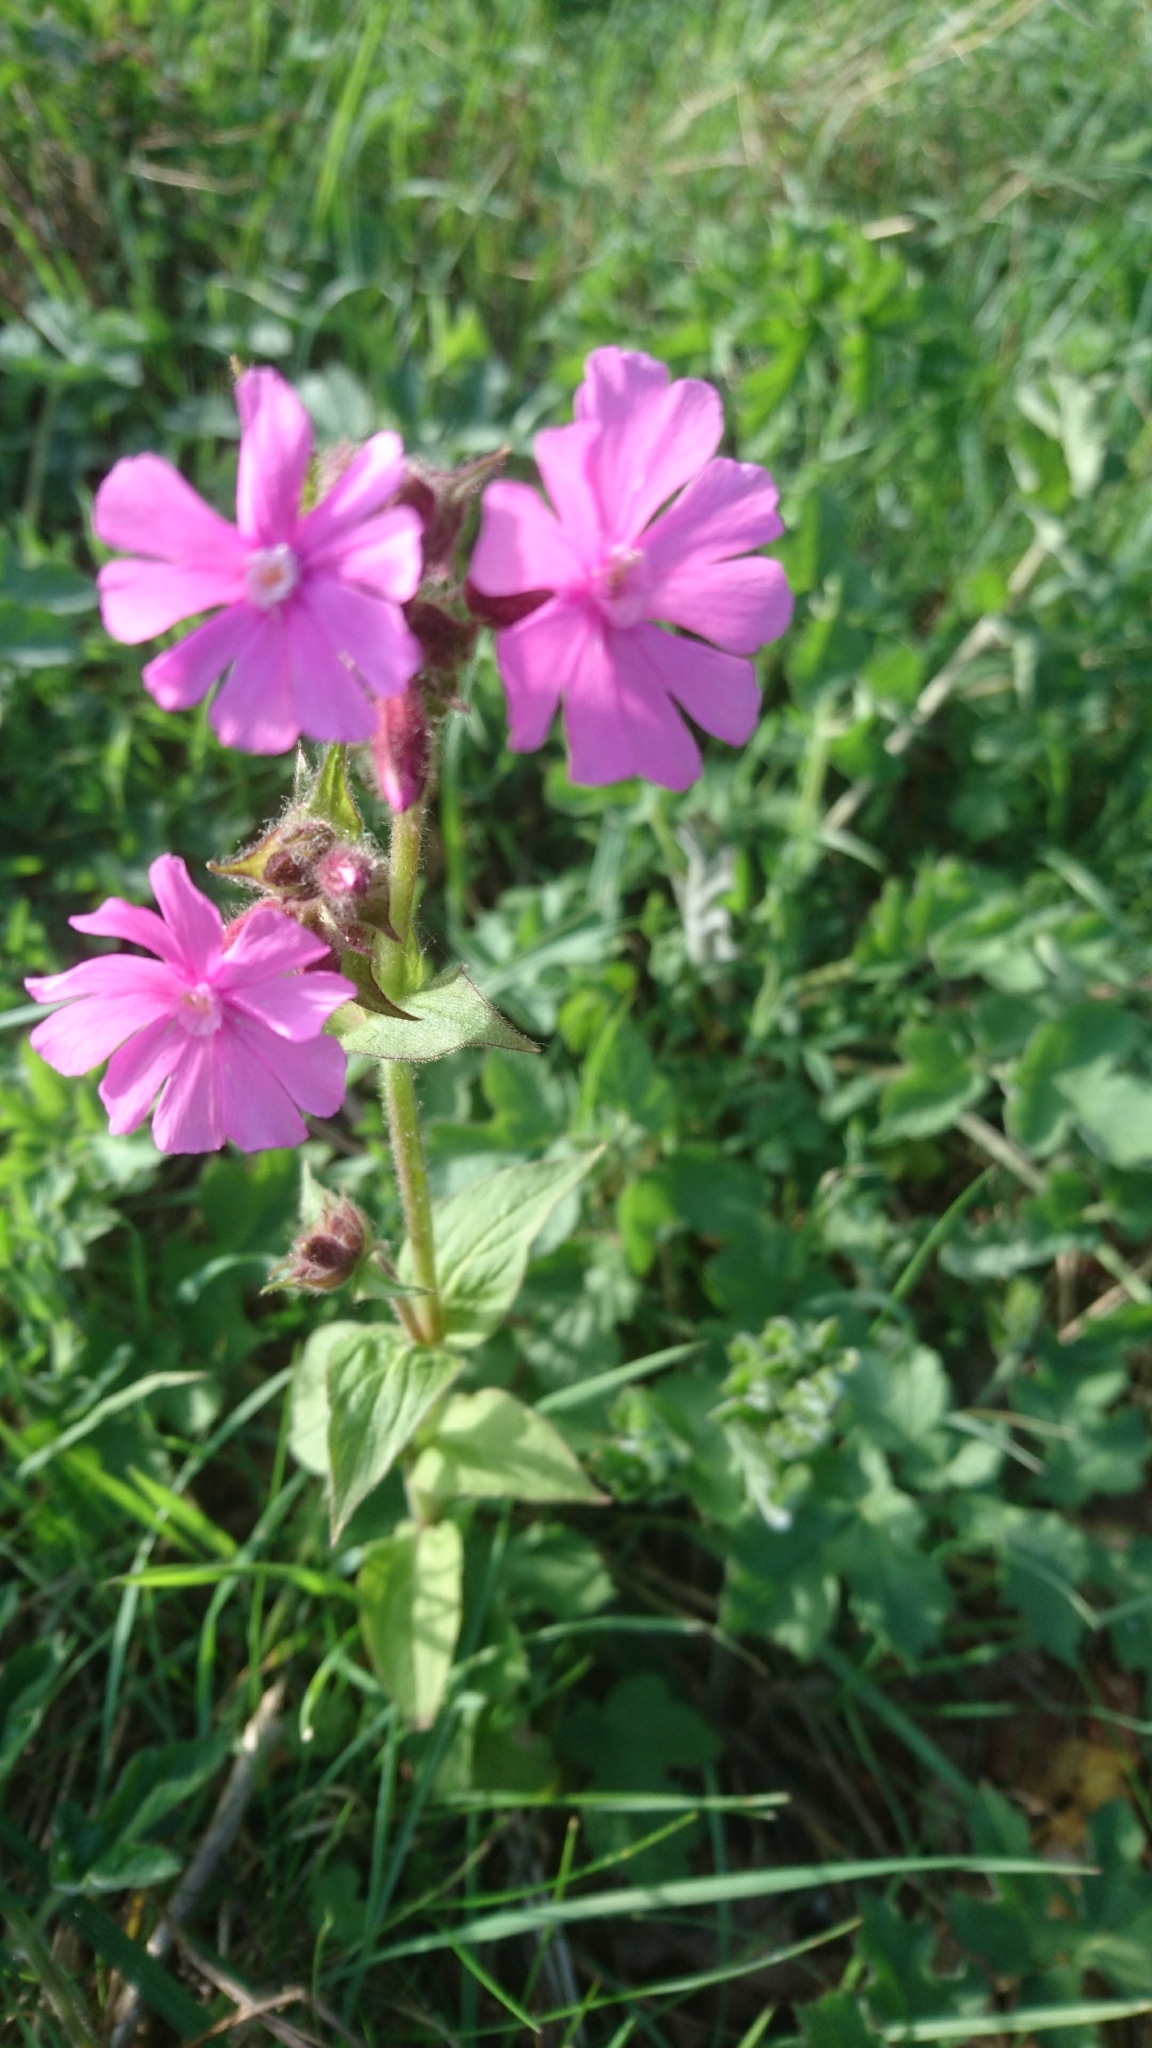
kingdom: Plantae
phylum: Tracheophyta
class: Magnoliopsida
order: Caryophyllales
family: Caryophyllaceae
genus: Silene
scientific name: Silene dioica
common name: Red campion
